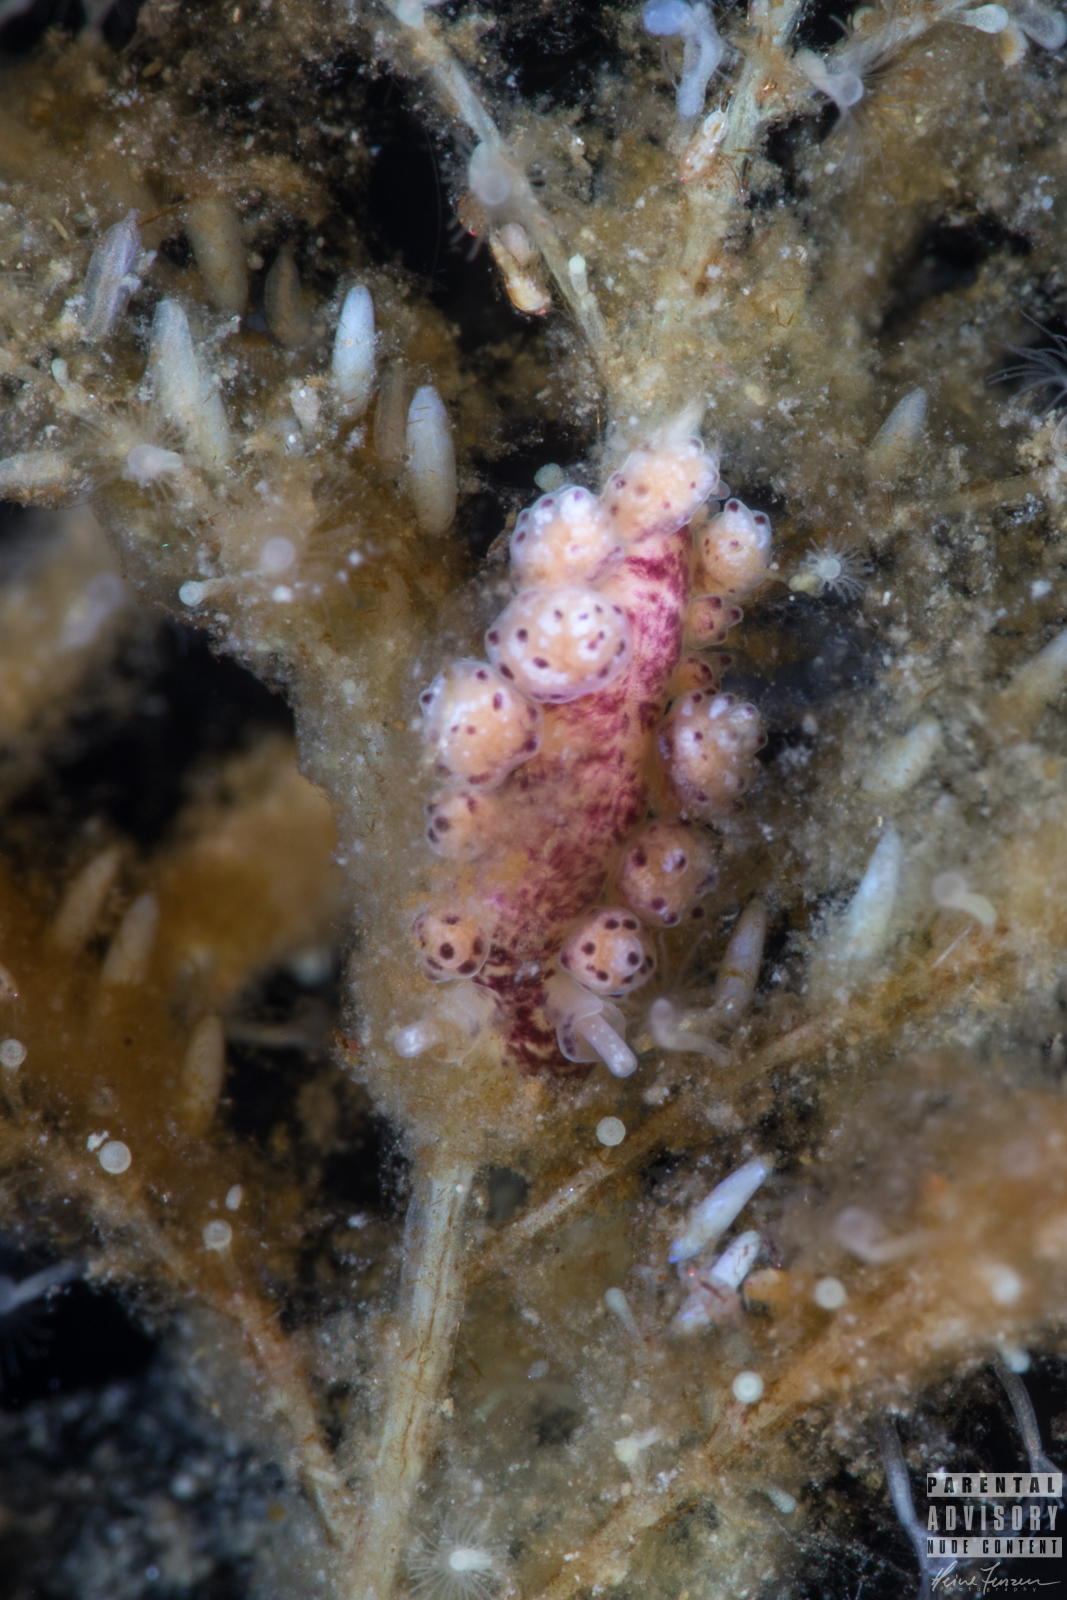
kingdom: Animalia
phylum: Mollusca
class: Gastropoda
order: Nudibranchia
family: Dotidae
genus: Doto
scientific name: Doto coronata
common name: Coronate doto
